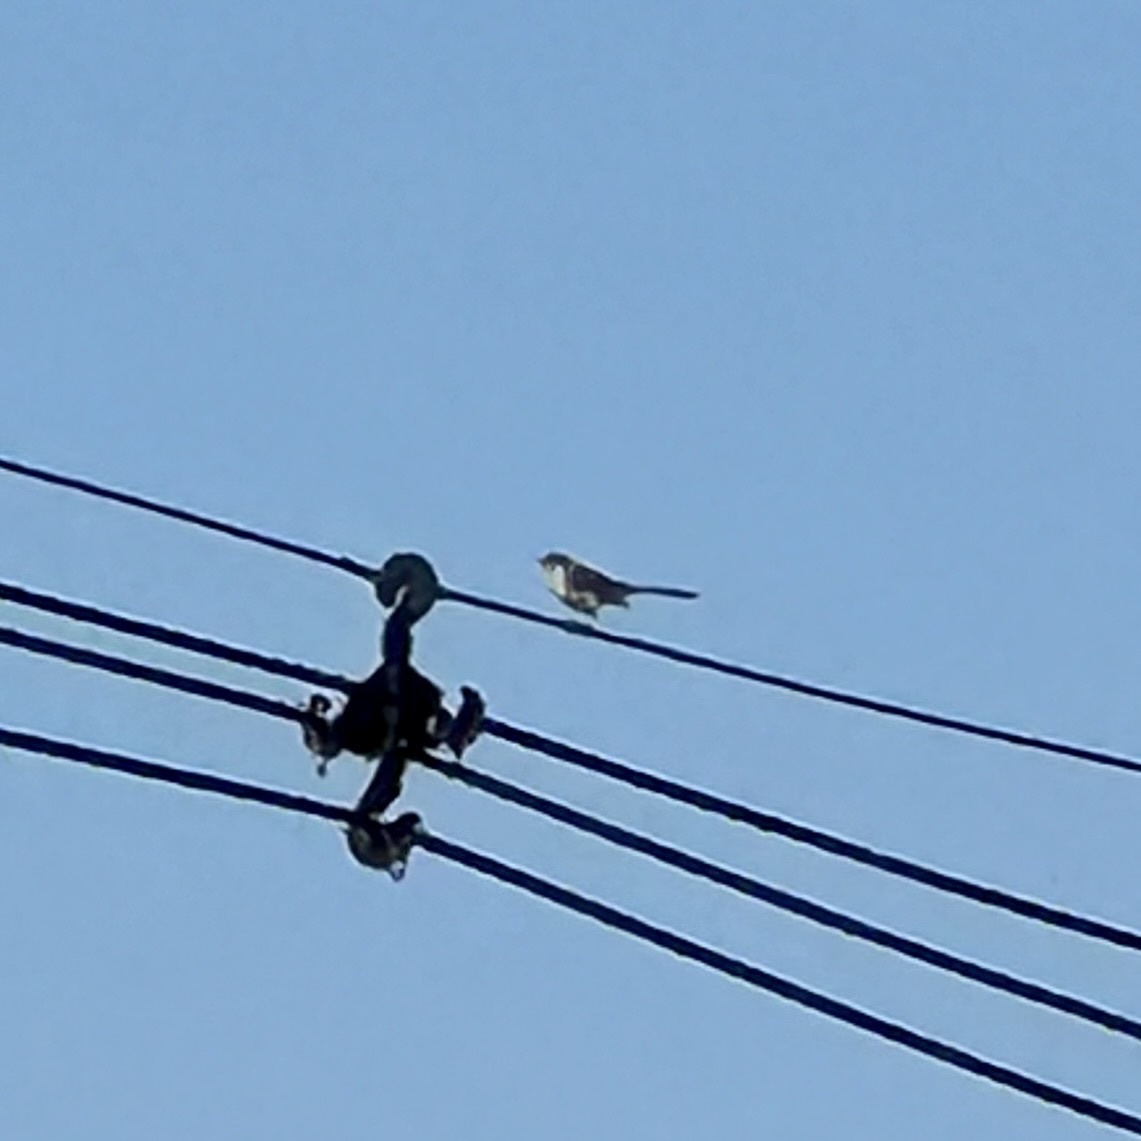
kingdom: Animalia
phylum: Chordata
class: Aves
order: Passeriformes
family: Mimidae
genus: Mimus
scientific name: Mimus polyglottos
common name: Northern mockingbird
